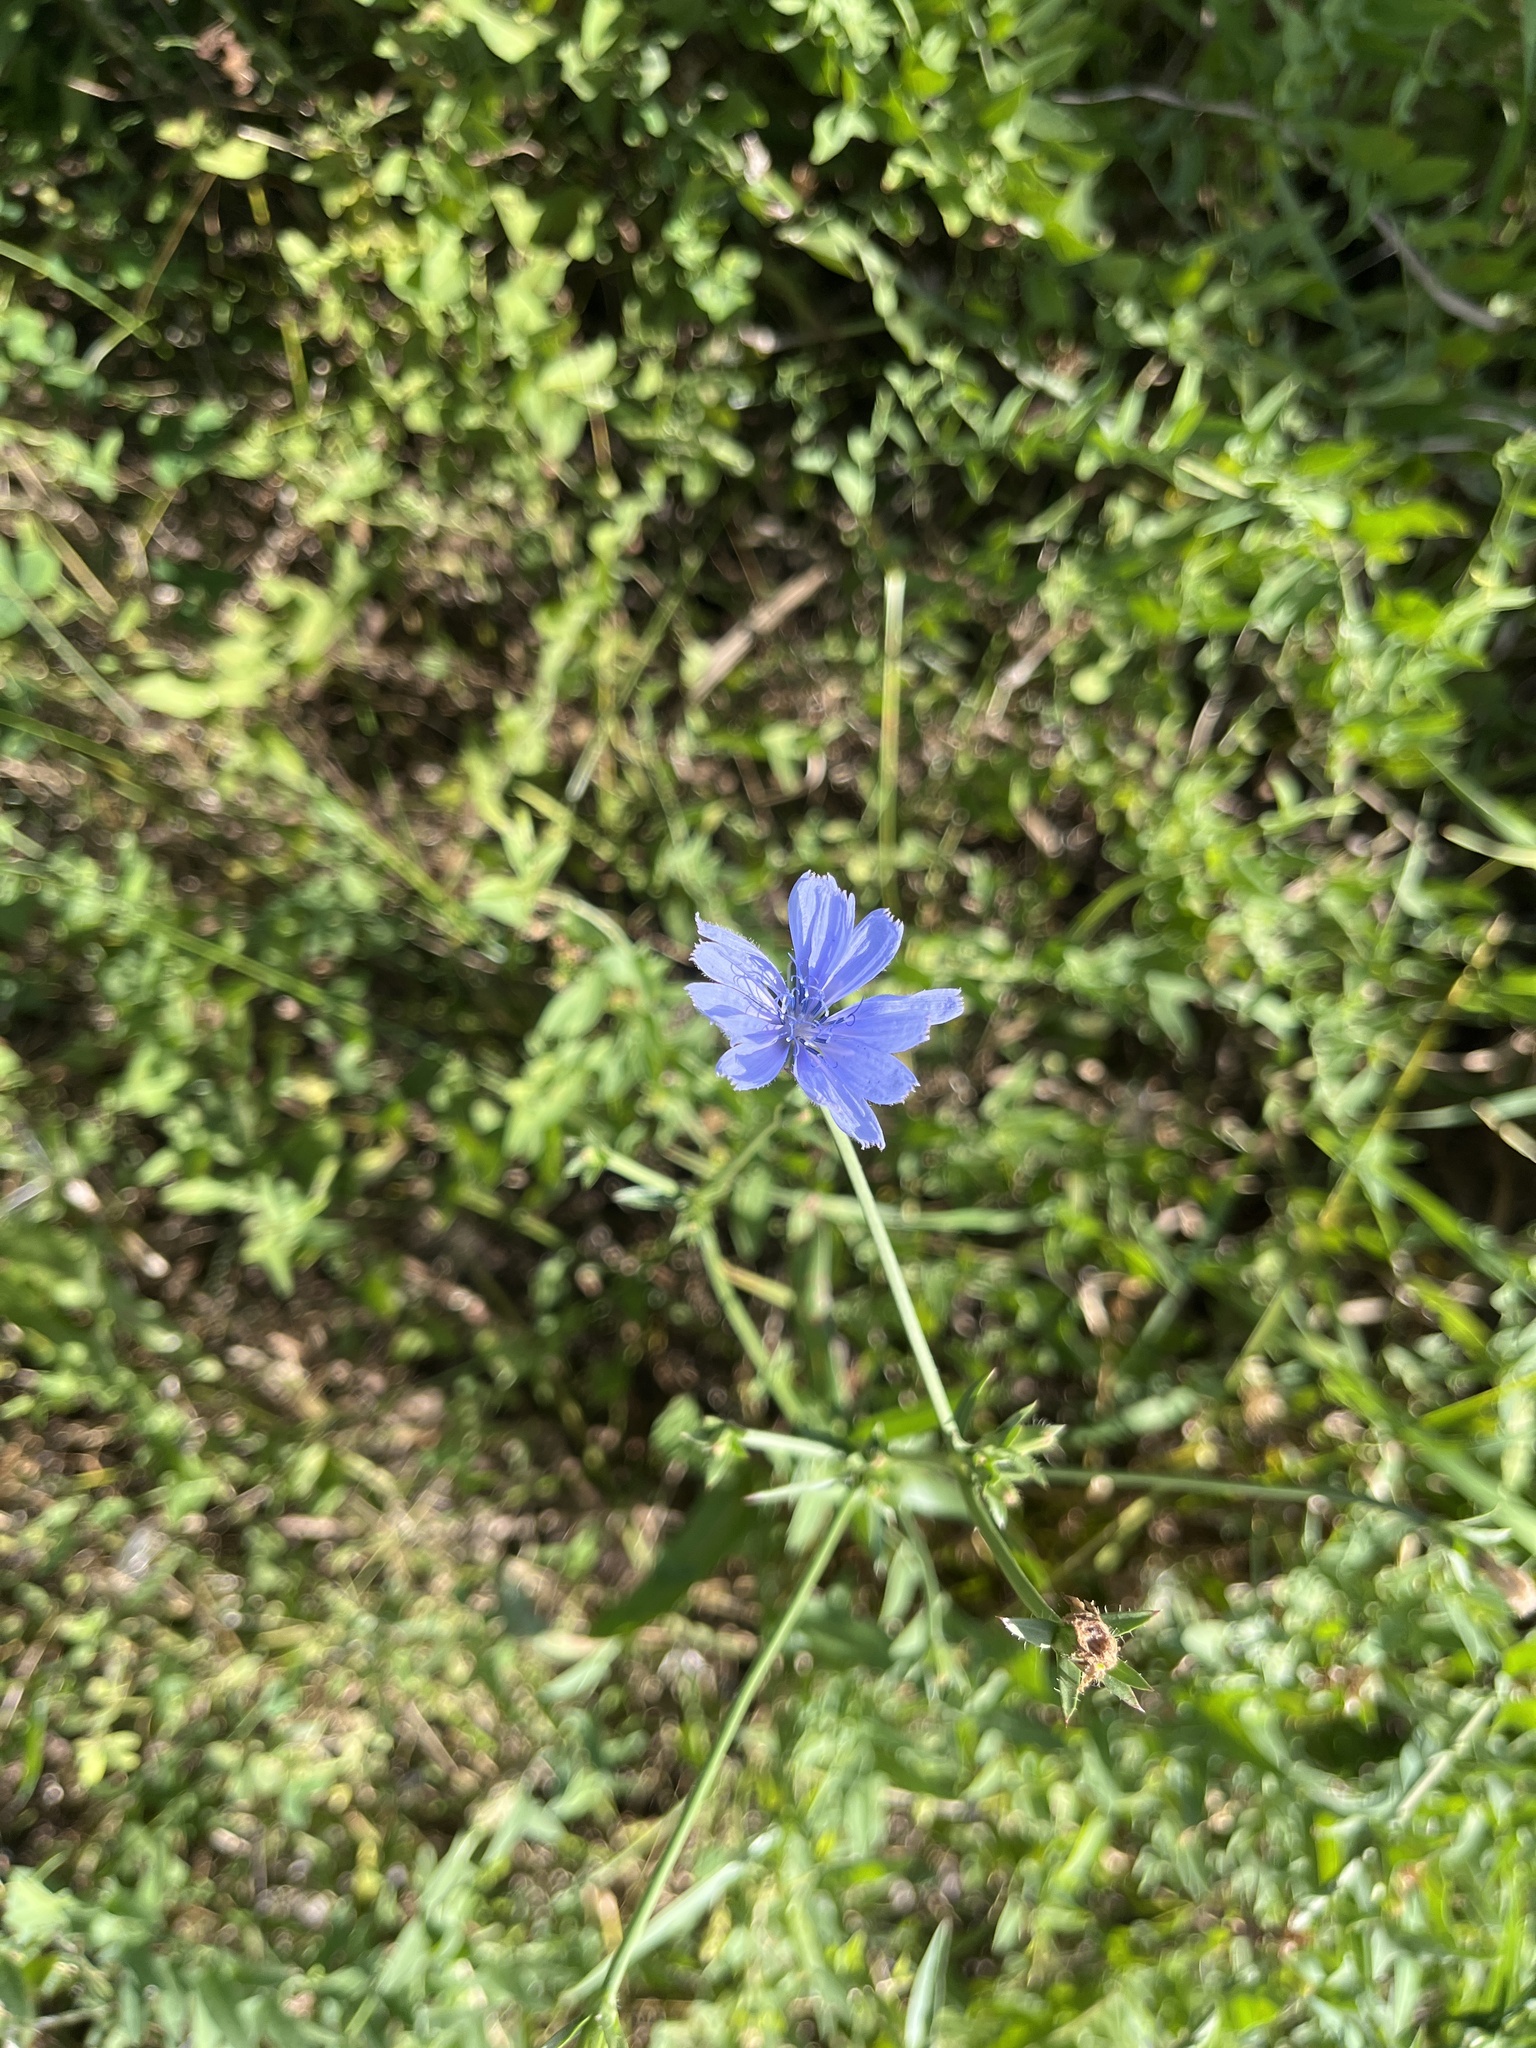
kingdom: Plantae
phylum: Tracheophyta
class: Magnoliopsida
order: Asterales
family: Asteraceae
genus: Cichorium
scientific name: Cichorium intybus
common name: Chicory
